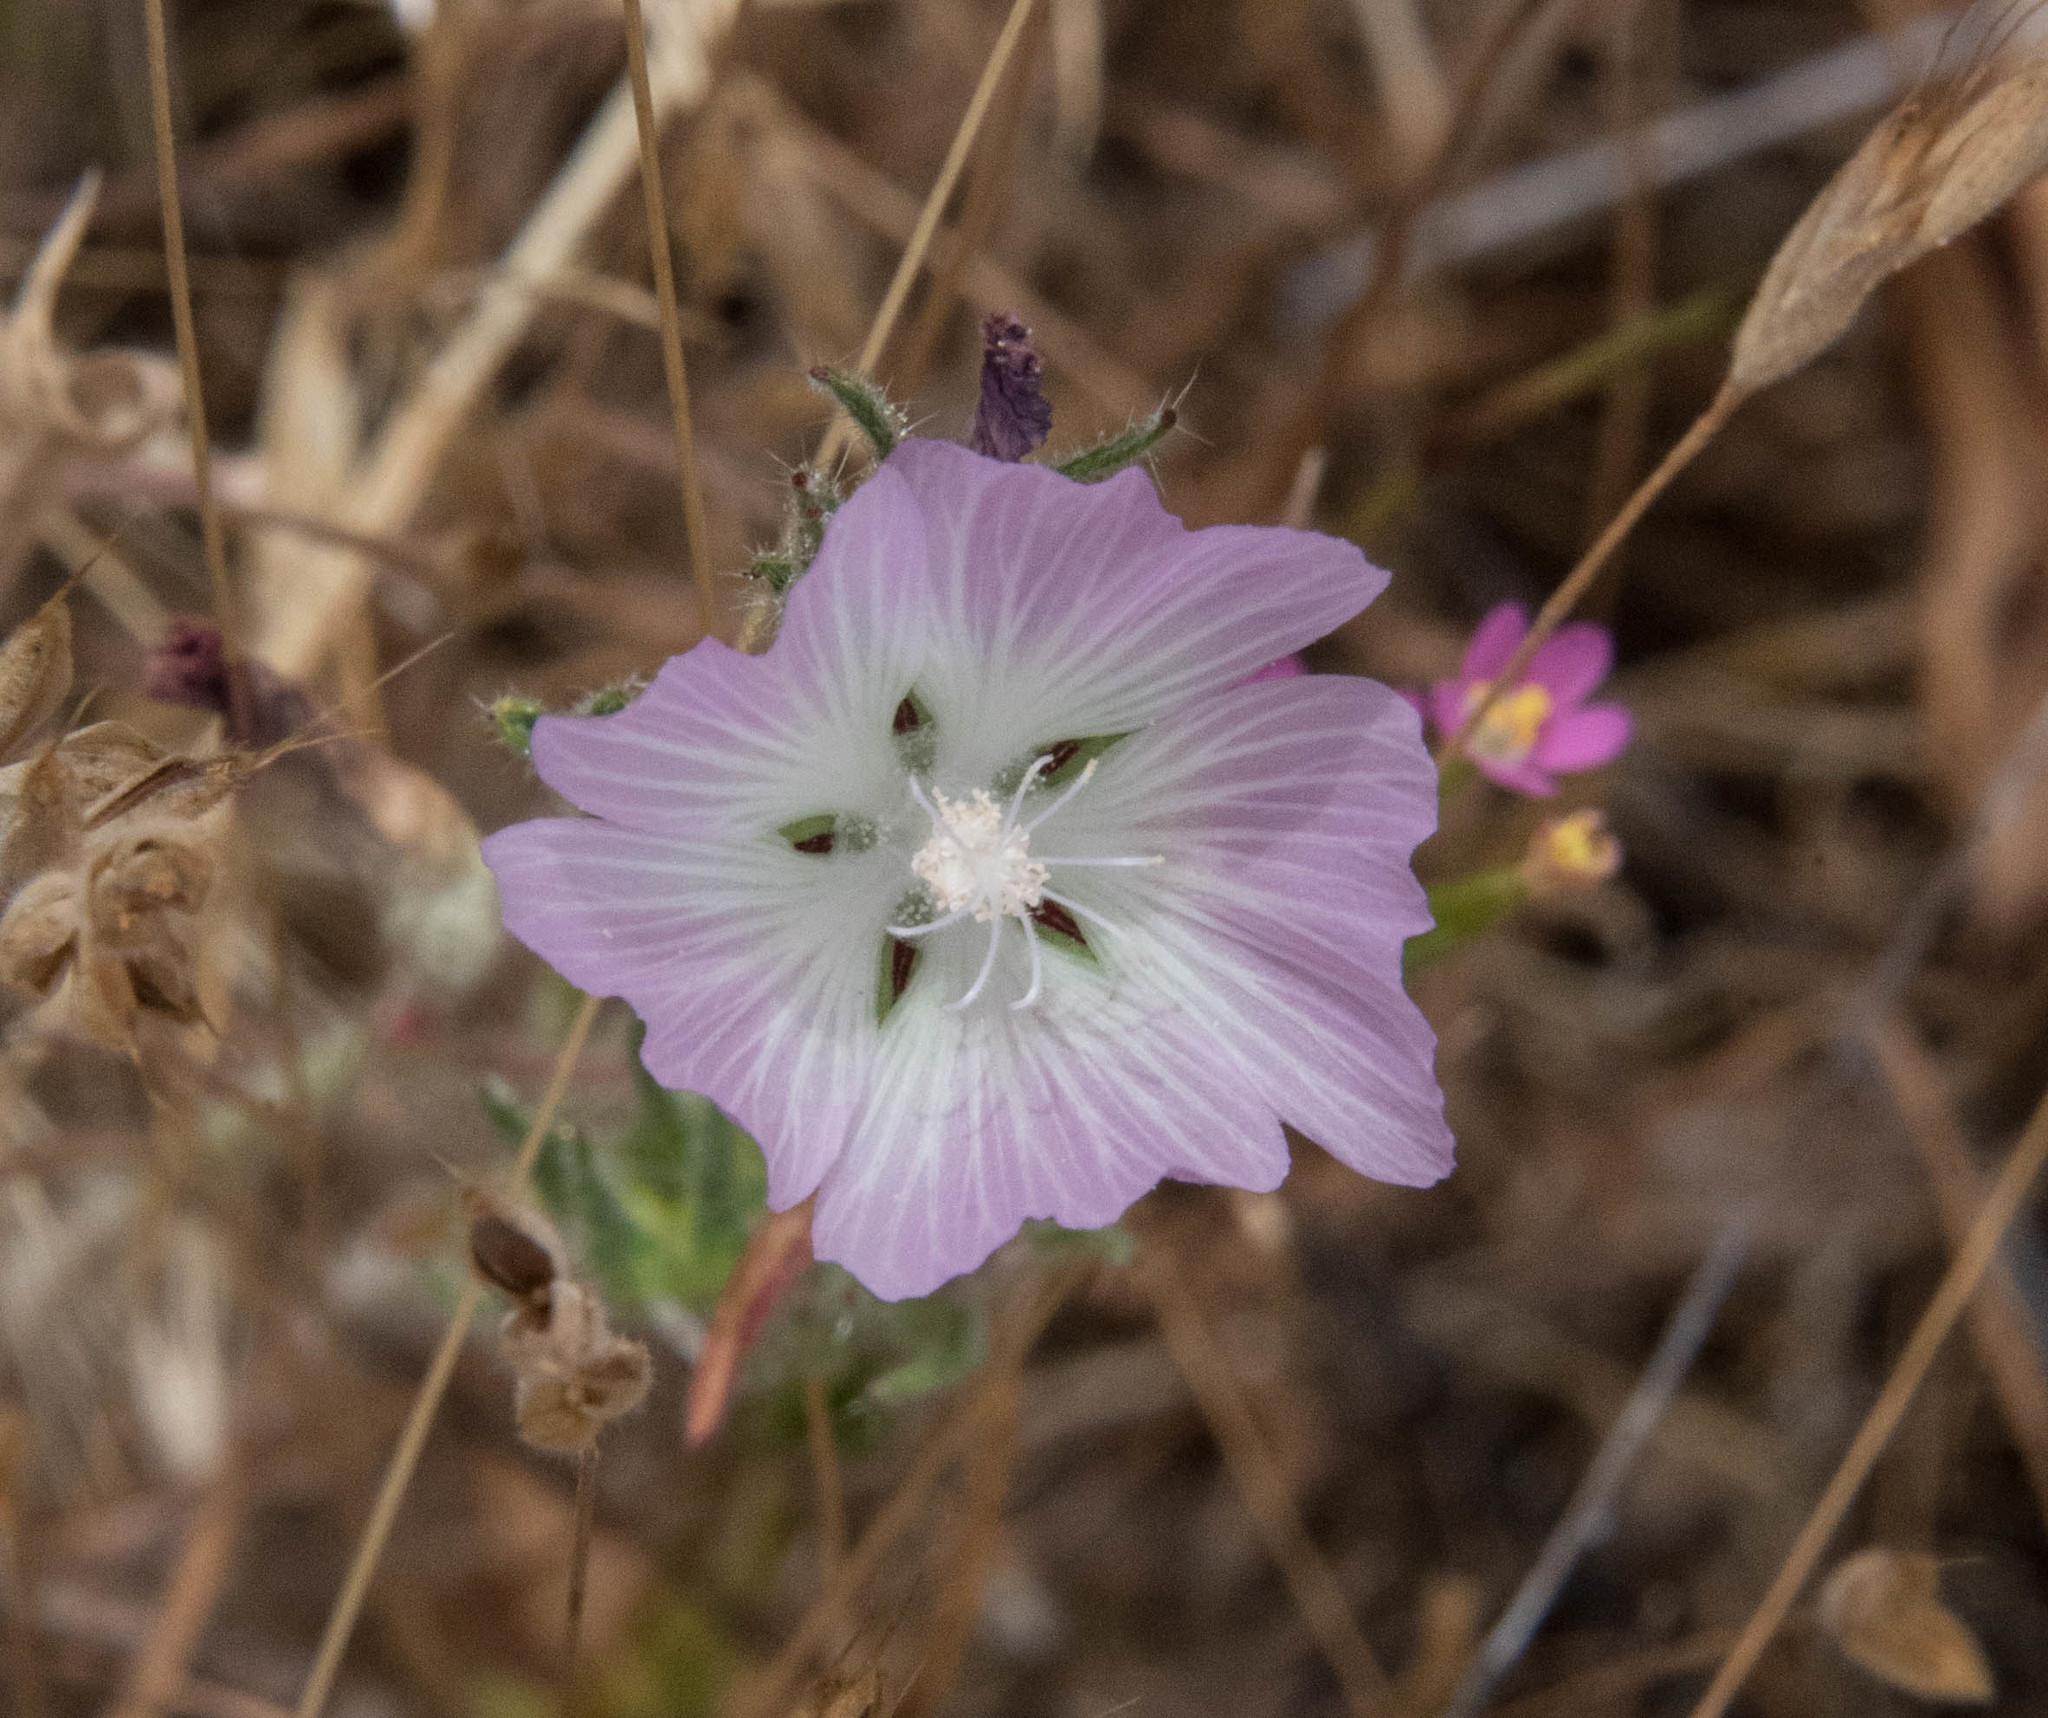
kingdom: Plantae
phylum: Tracheophyta
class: Magnoliopsida
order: Malvales
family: Malvaceae
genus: Sidalcea
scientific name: Sidalcea diploscypha
